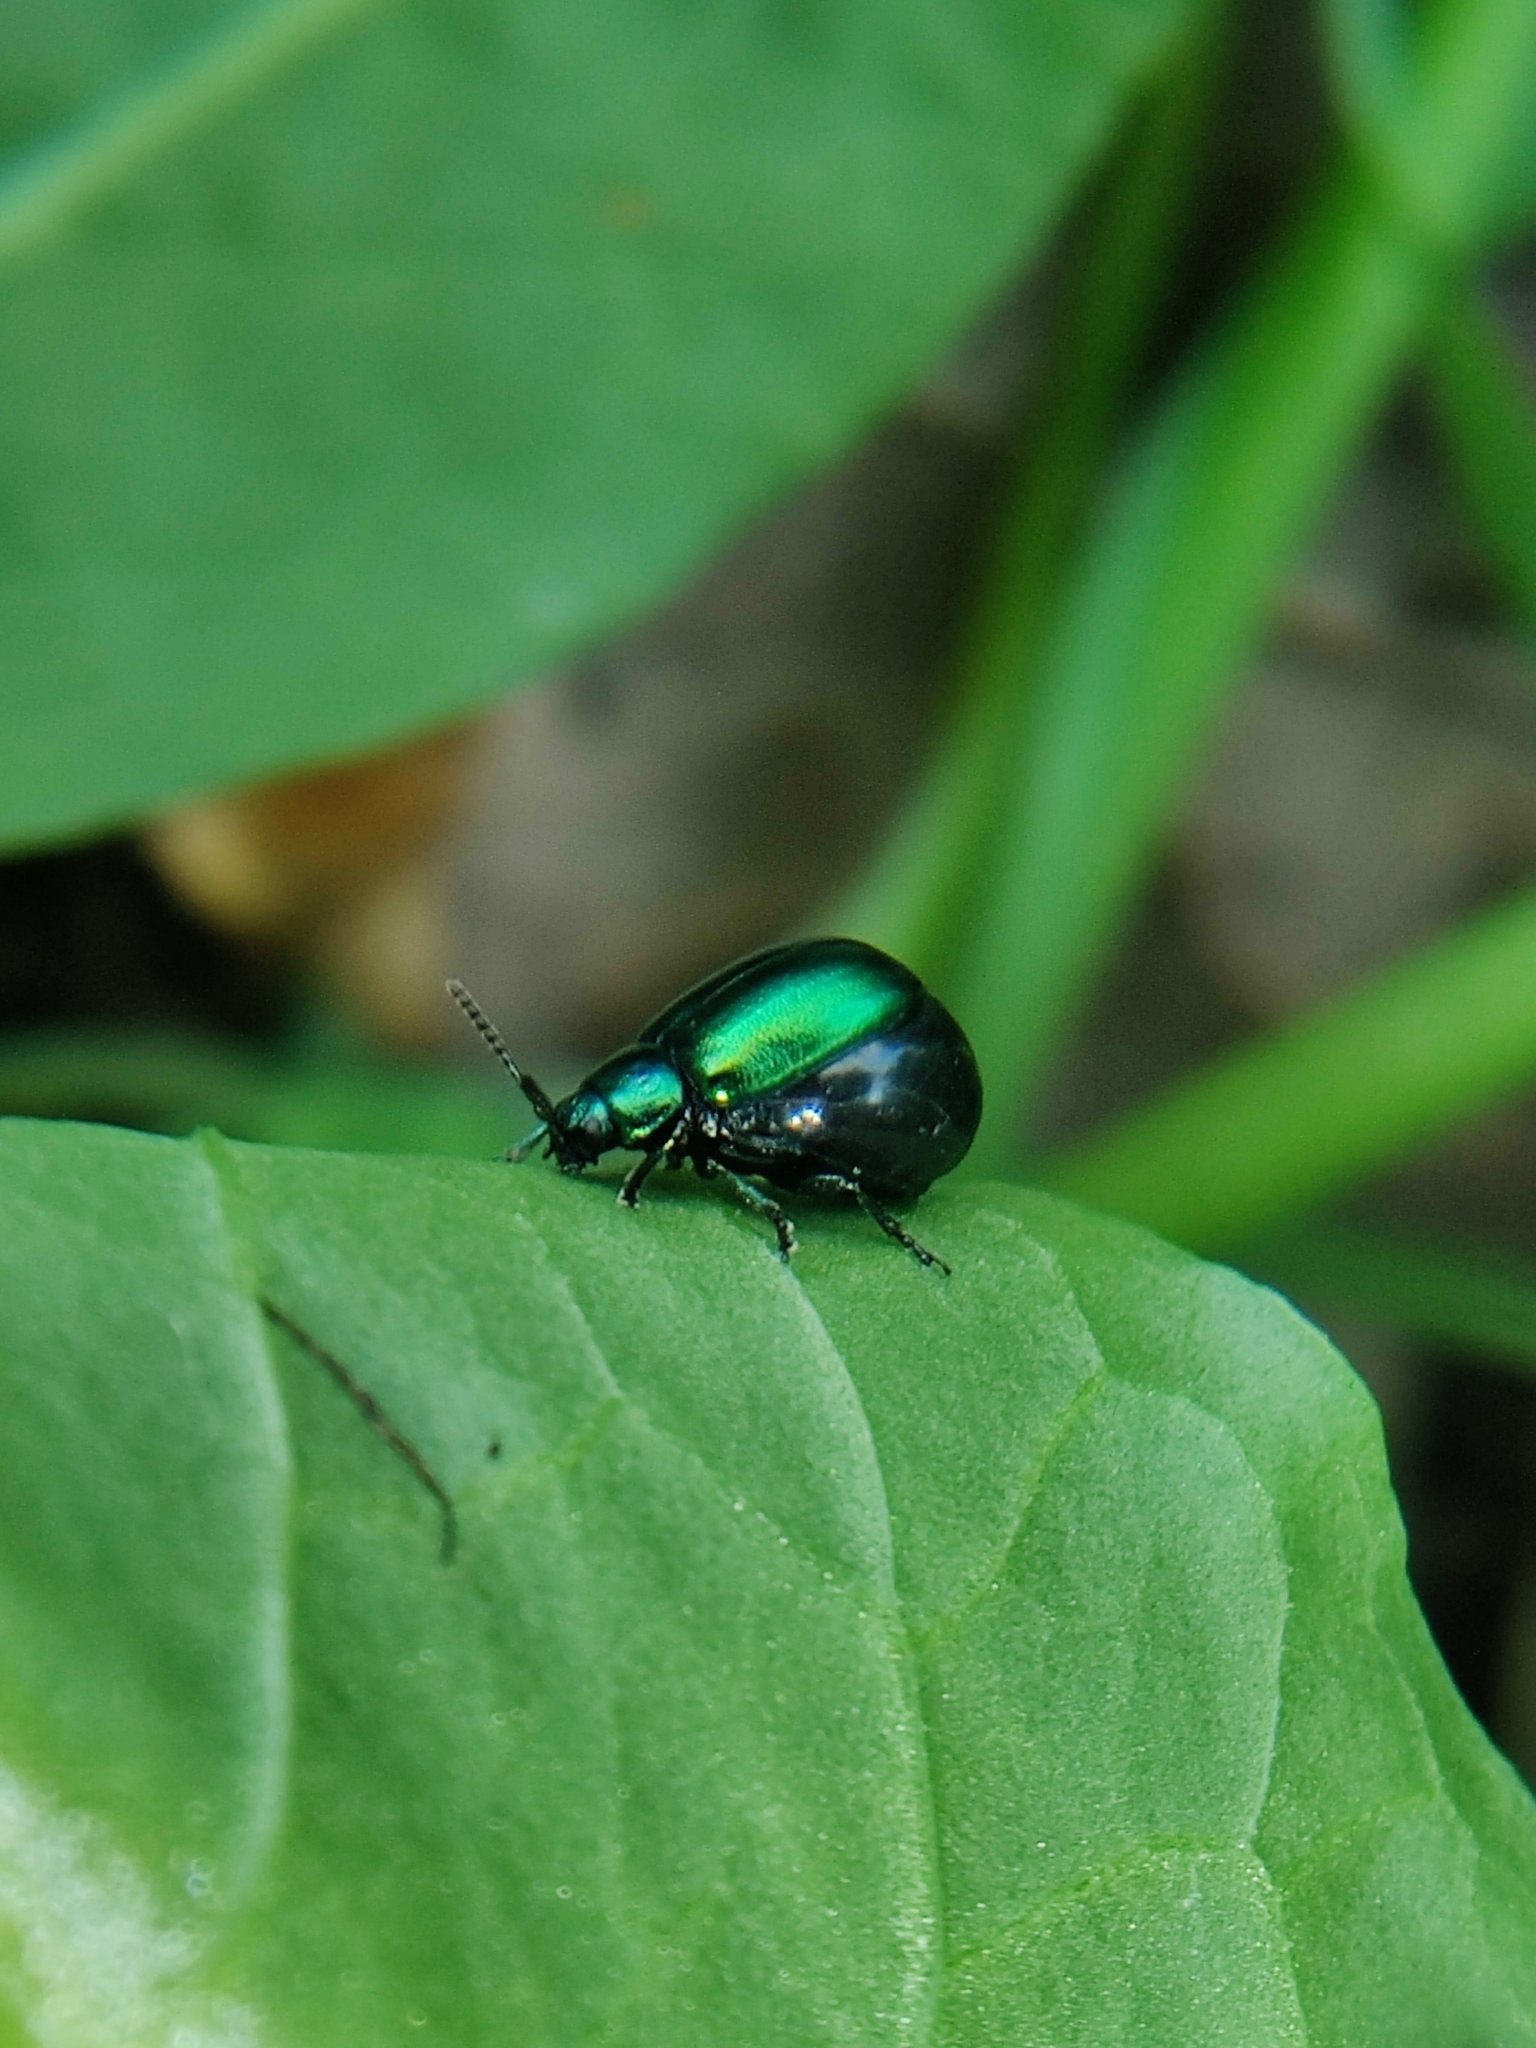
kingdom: Animalia
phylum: Arthropoda
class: Insecta
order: Coleoptera
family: Chrysomelidae
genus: Gastrophysa
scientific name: Gastrophysa cyanea
